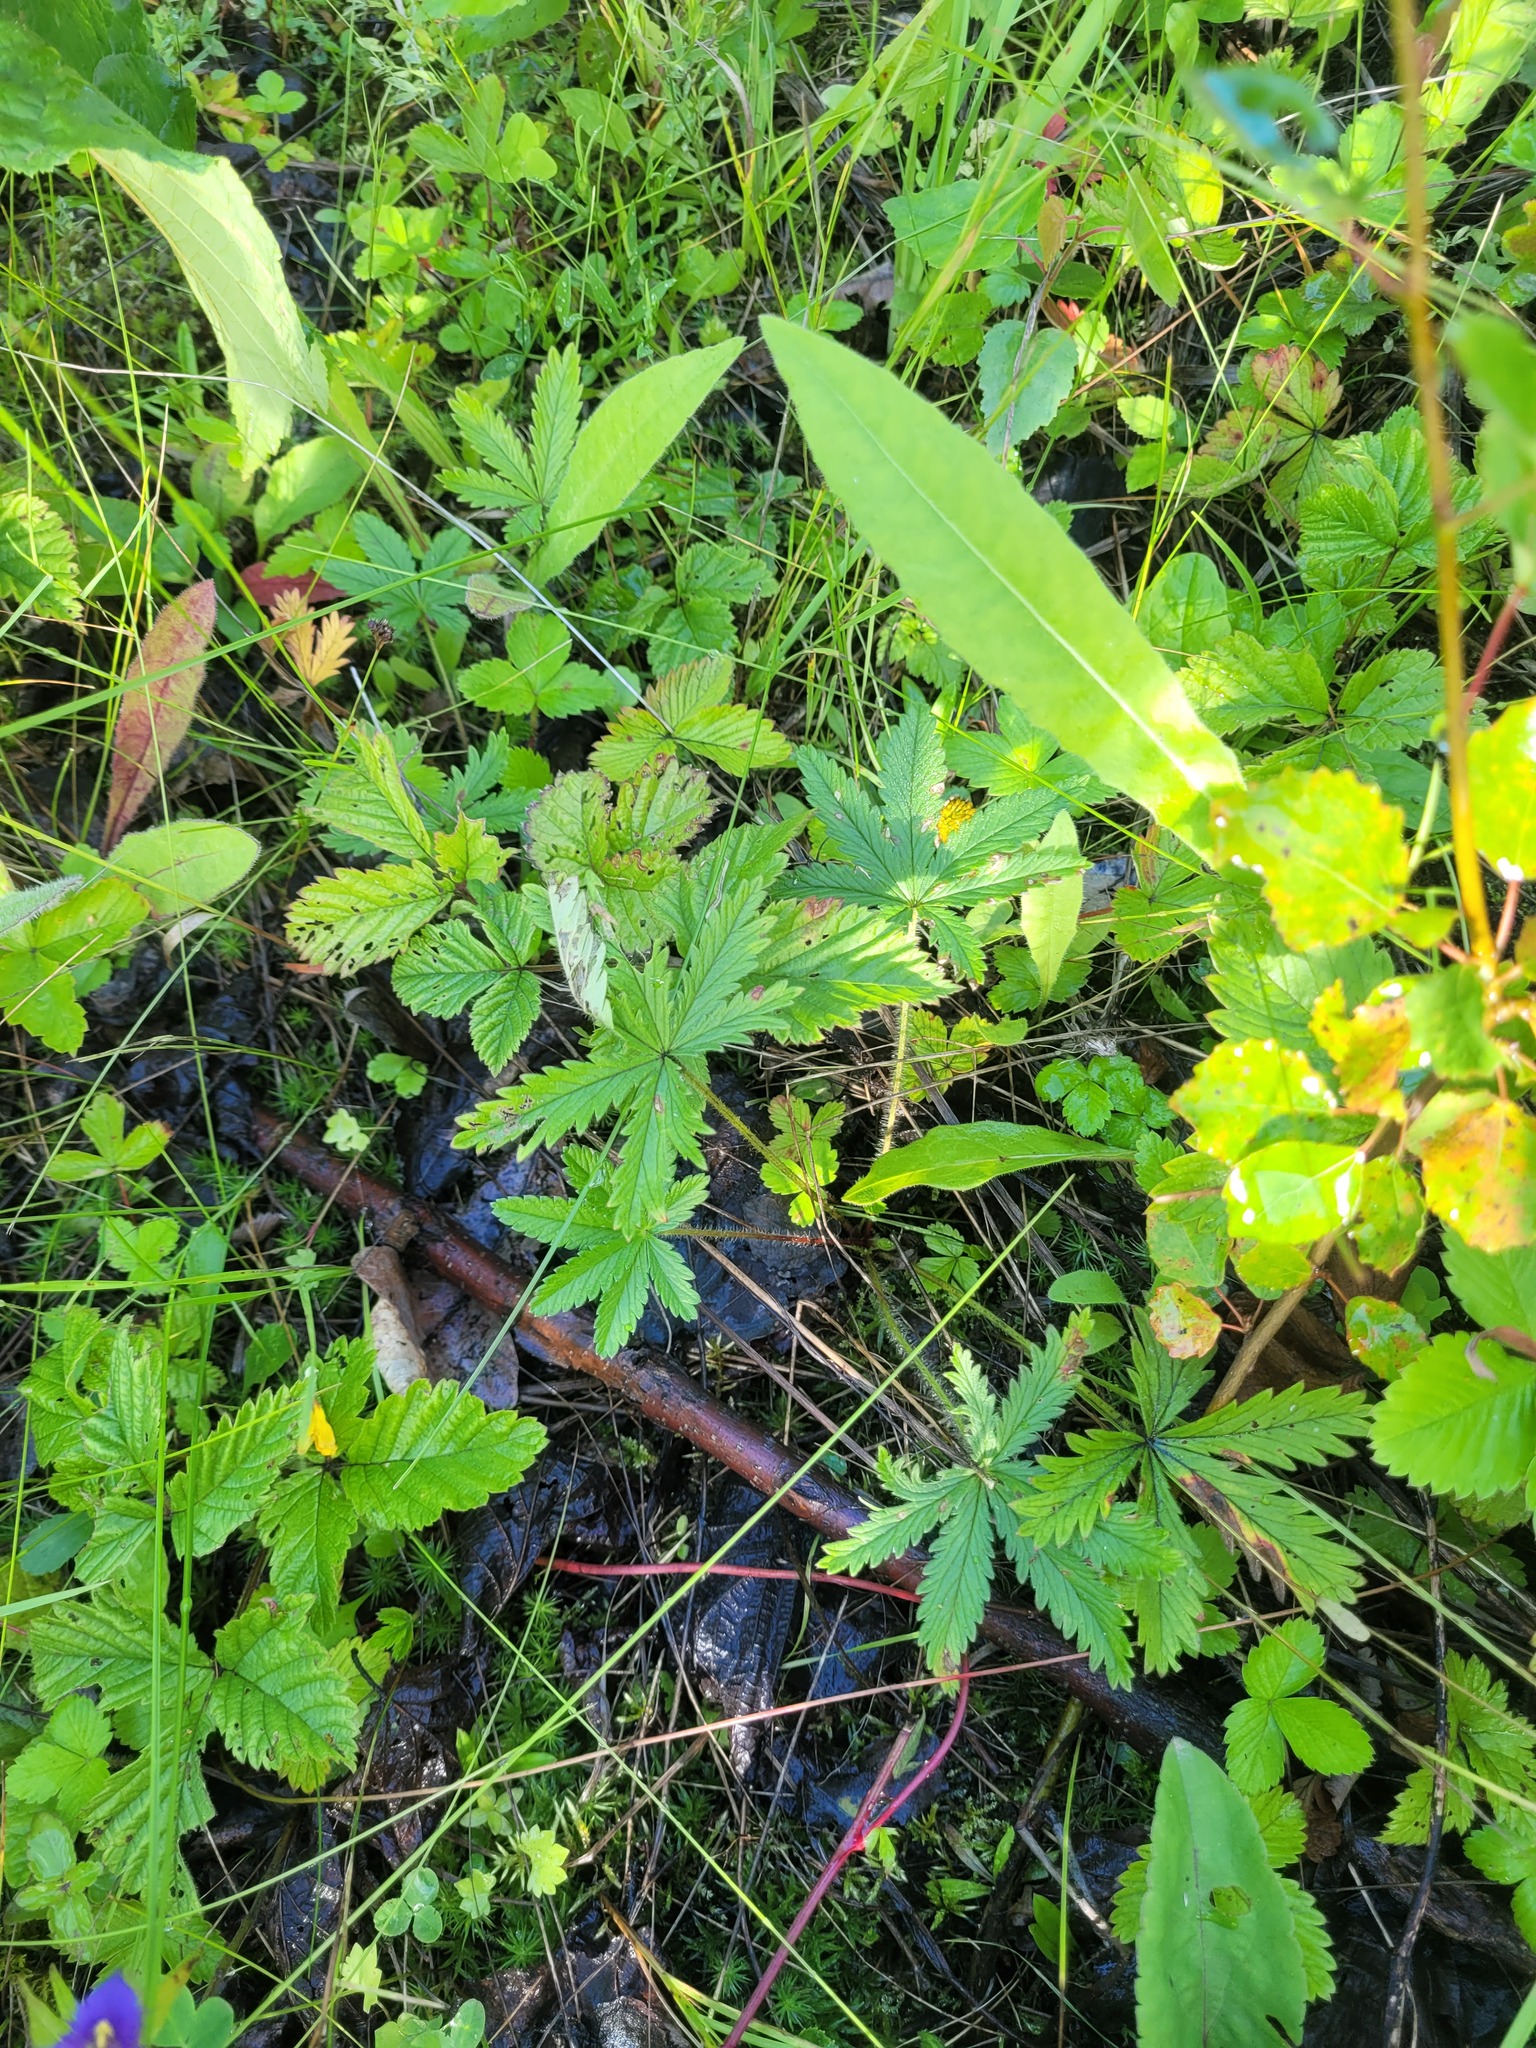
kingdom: Plantae
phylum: Tracheophyta
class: Magnoliopsida
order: Rosales
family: Rosaceae
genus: Potentilla
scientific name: Potentilla thuringiaca
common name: European cinquefoil
